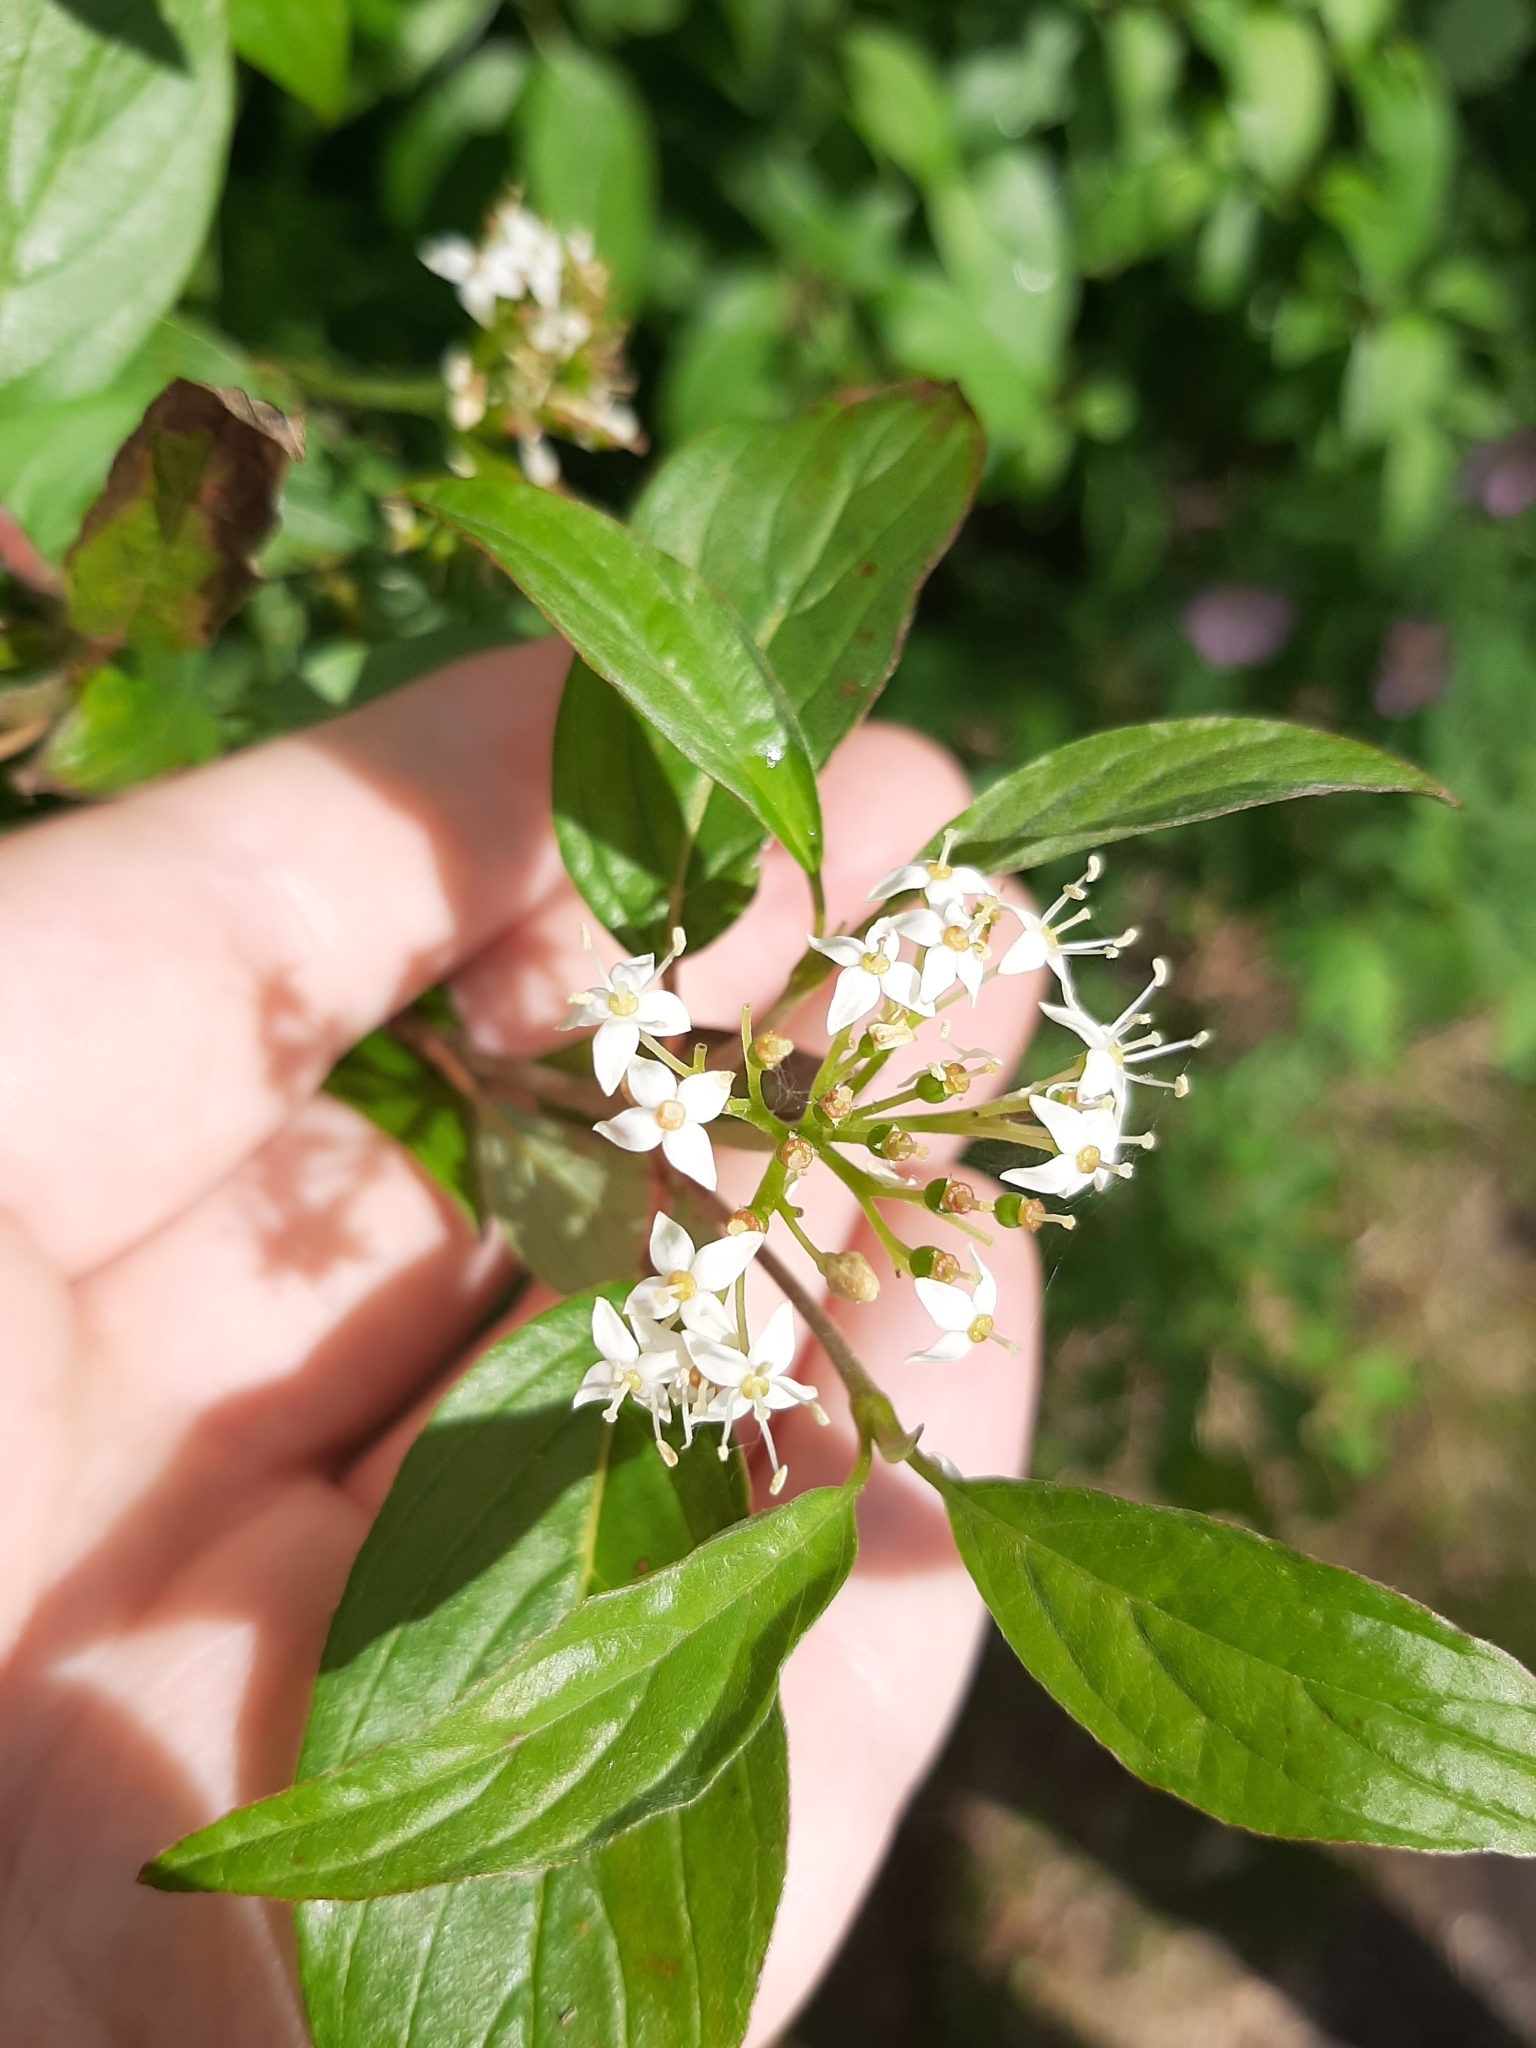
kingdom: Plantae
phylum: Tracheophyta
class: Magnoliopsida
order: Cornales
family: Cornaceae
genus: Cornus
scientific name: Cornus sericea
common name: Red-osier dogwood
